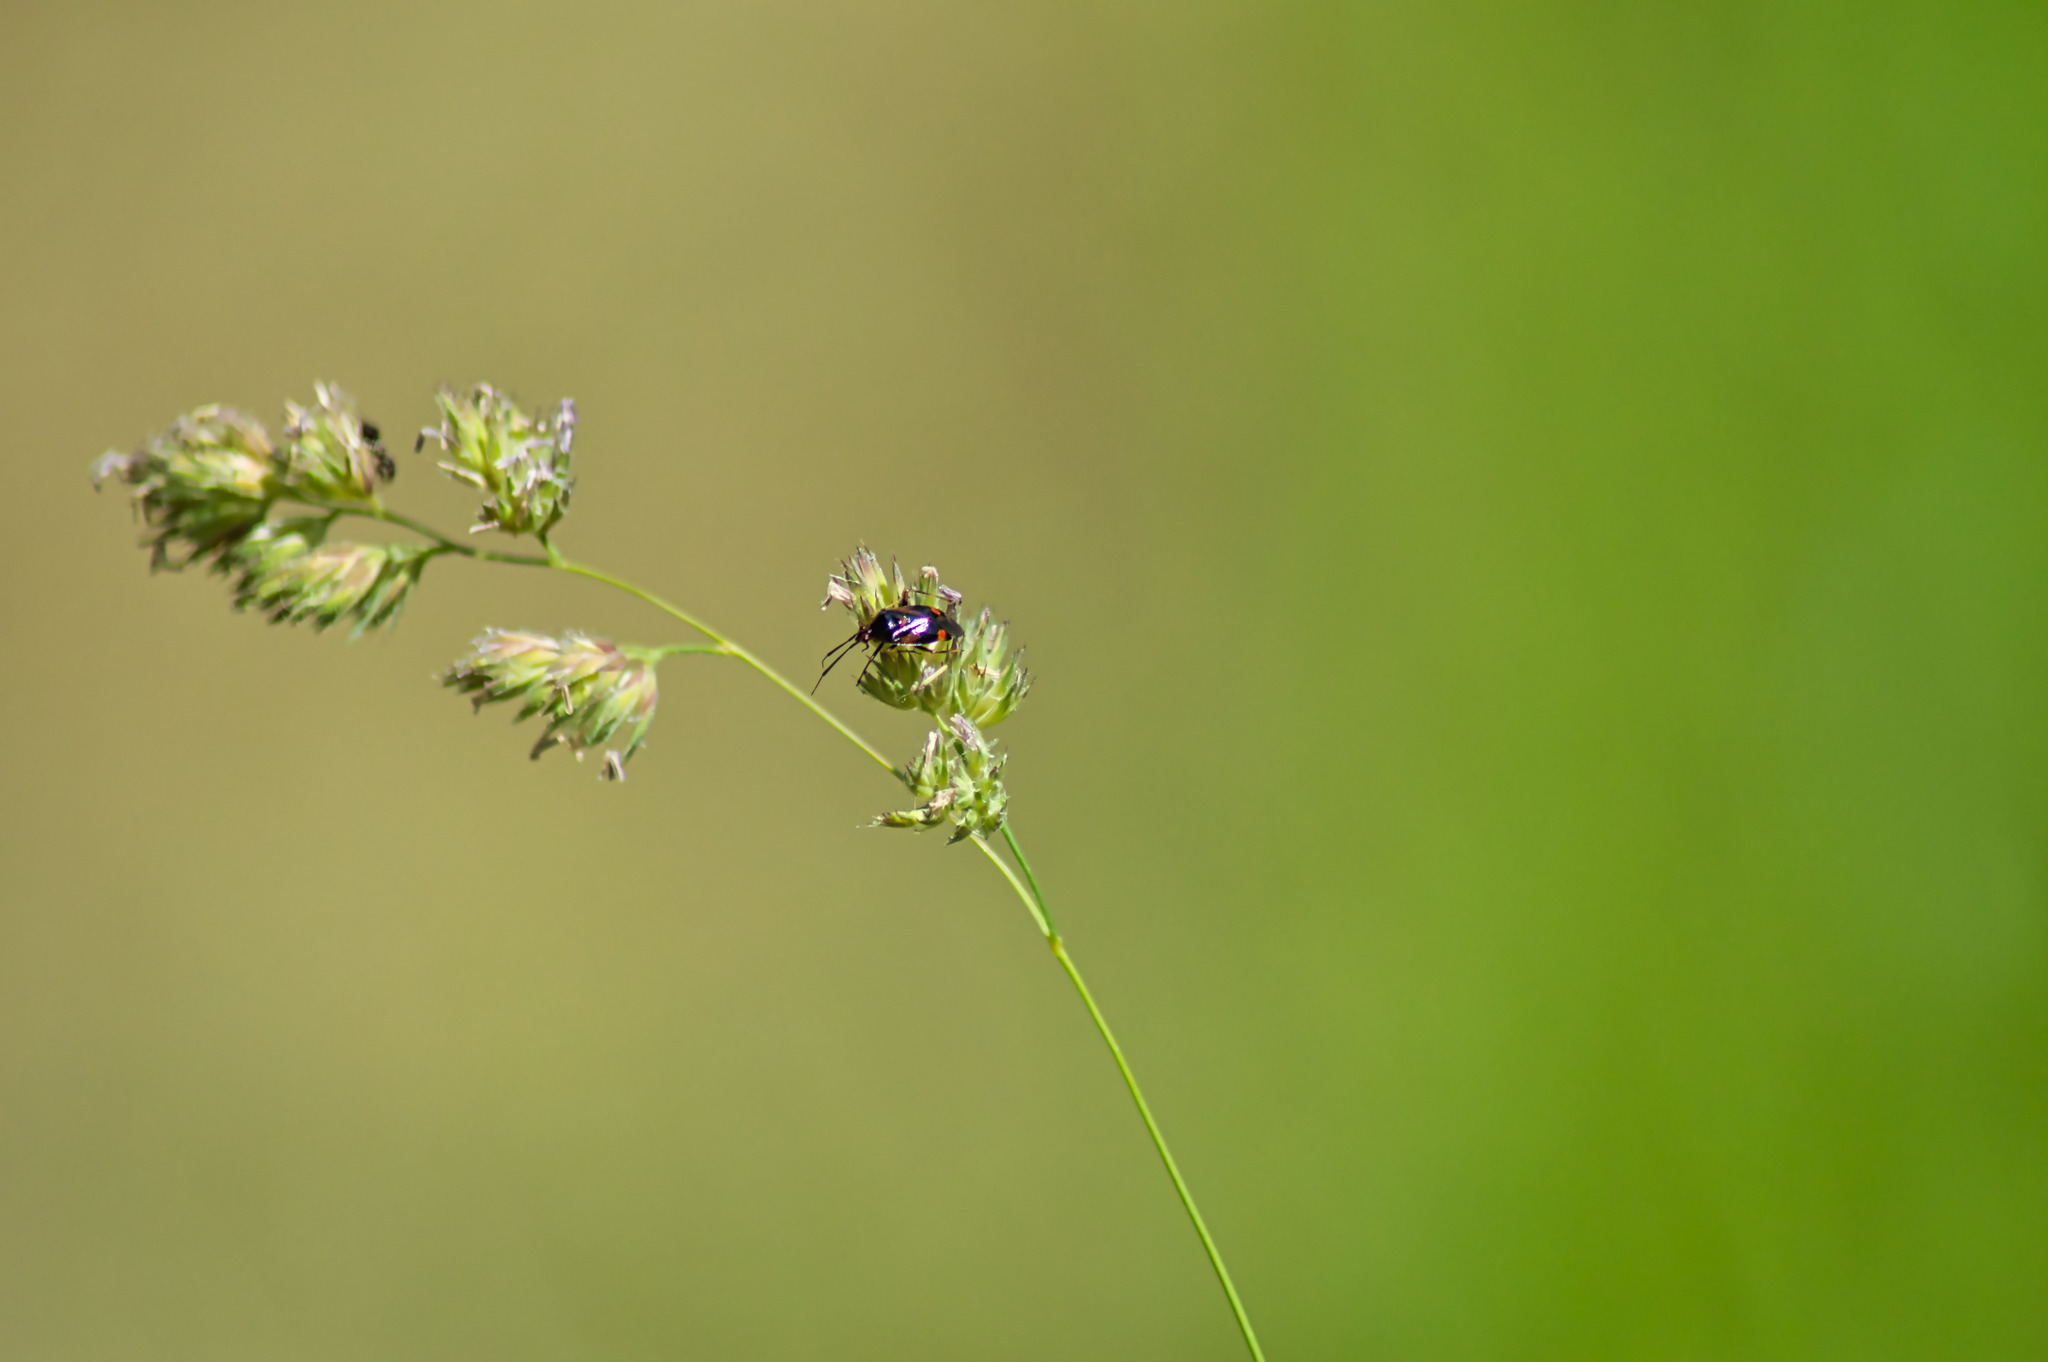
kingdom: Animalia
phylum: Arthropoda
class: Insecta
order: Hemiptera
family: Miridae
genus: Deraeocoris
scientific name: Deraeocoris ruber
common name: Plant bug
